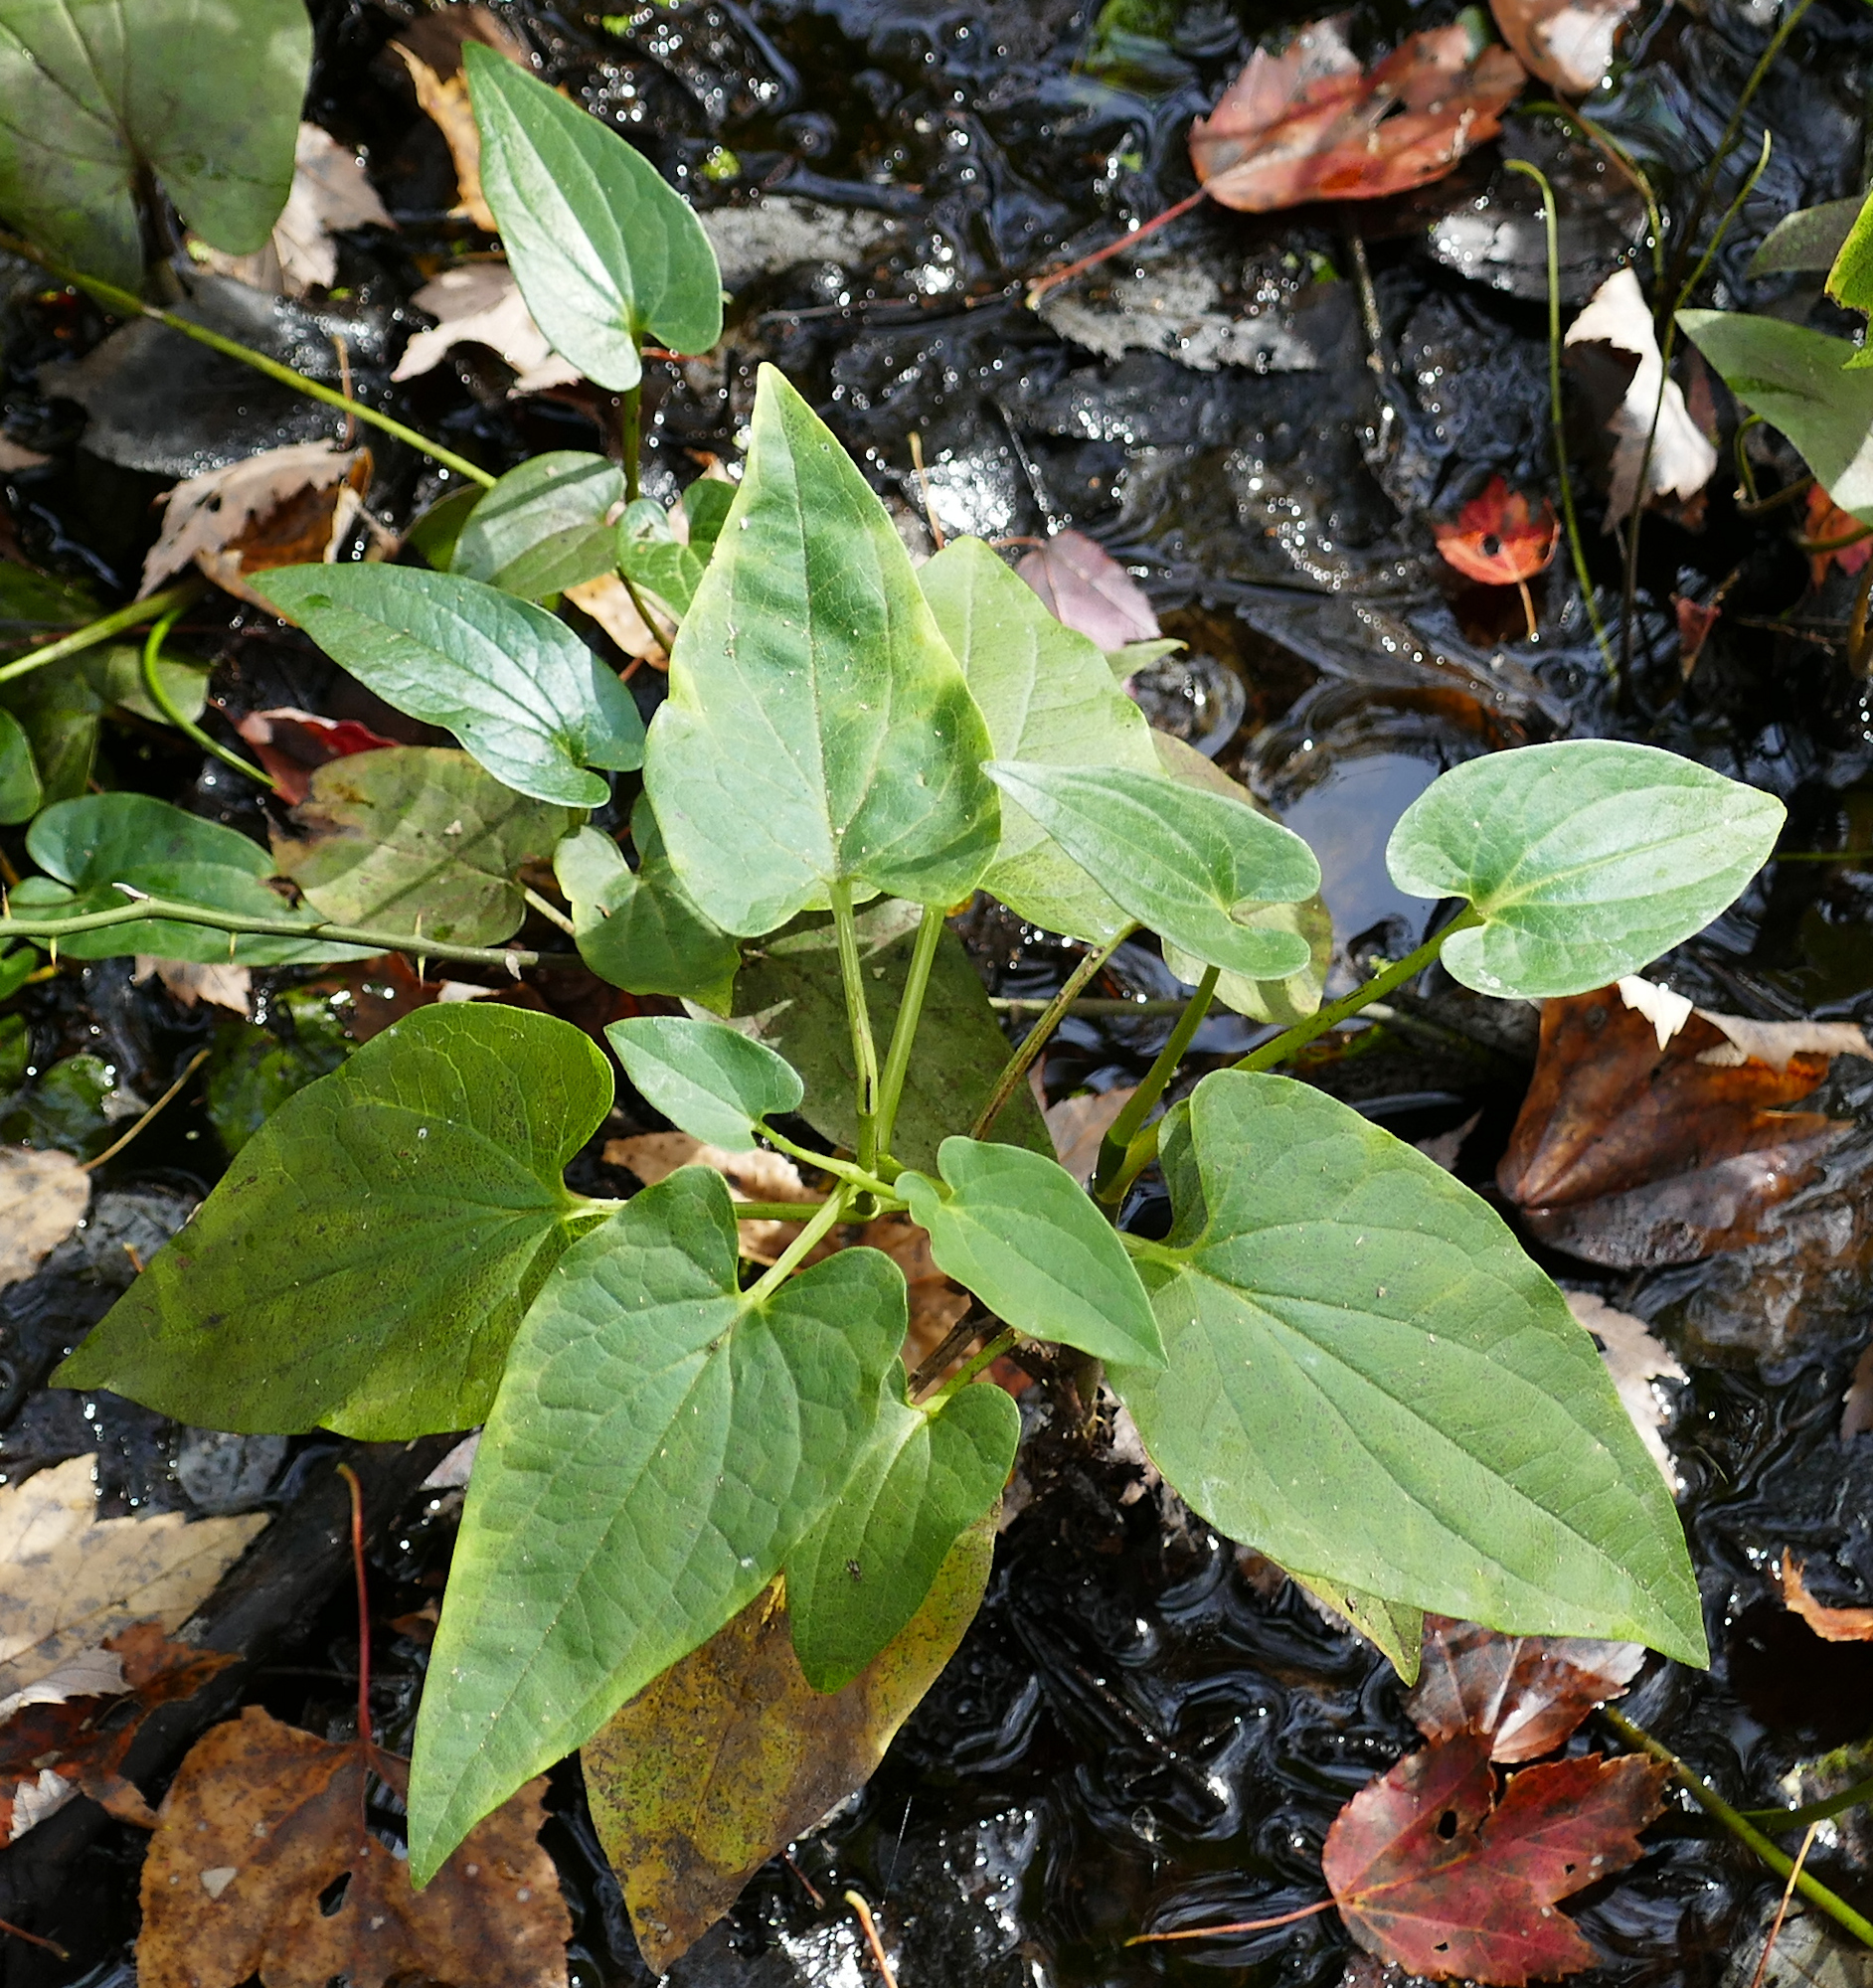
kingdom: Plantae
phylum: Tracheophyta
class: Magnoliopsida
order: Piperales
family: Saururaceae
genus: Saururus
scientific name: Saururus cernuus
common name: Lizard's-tail
